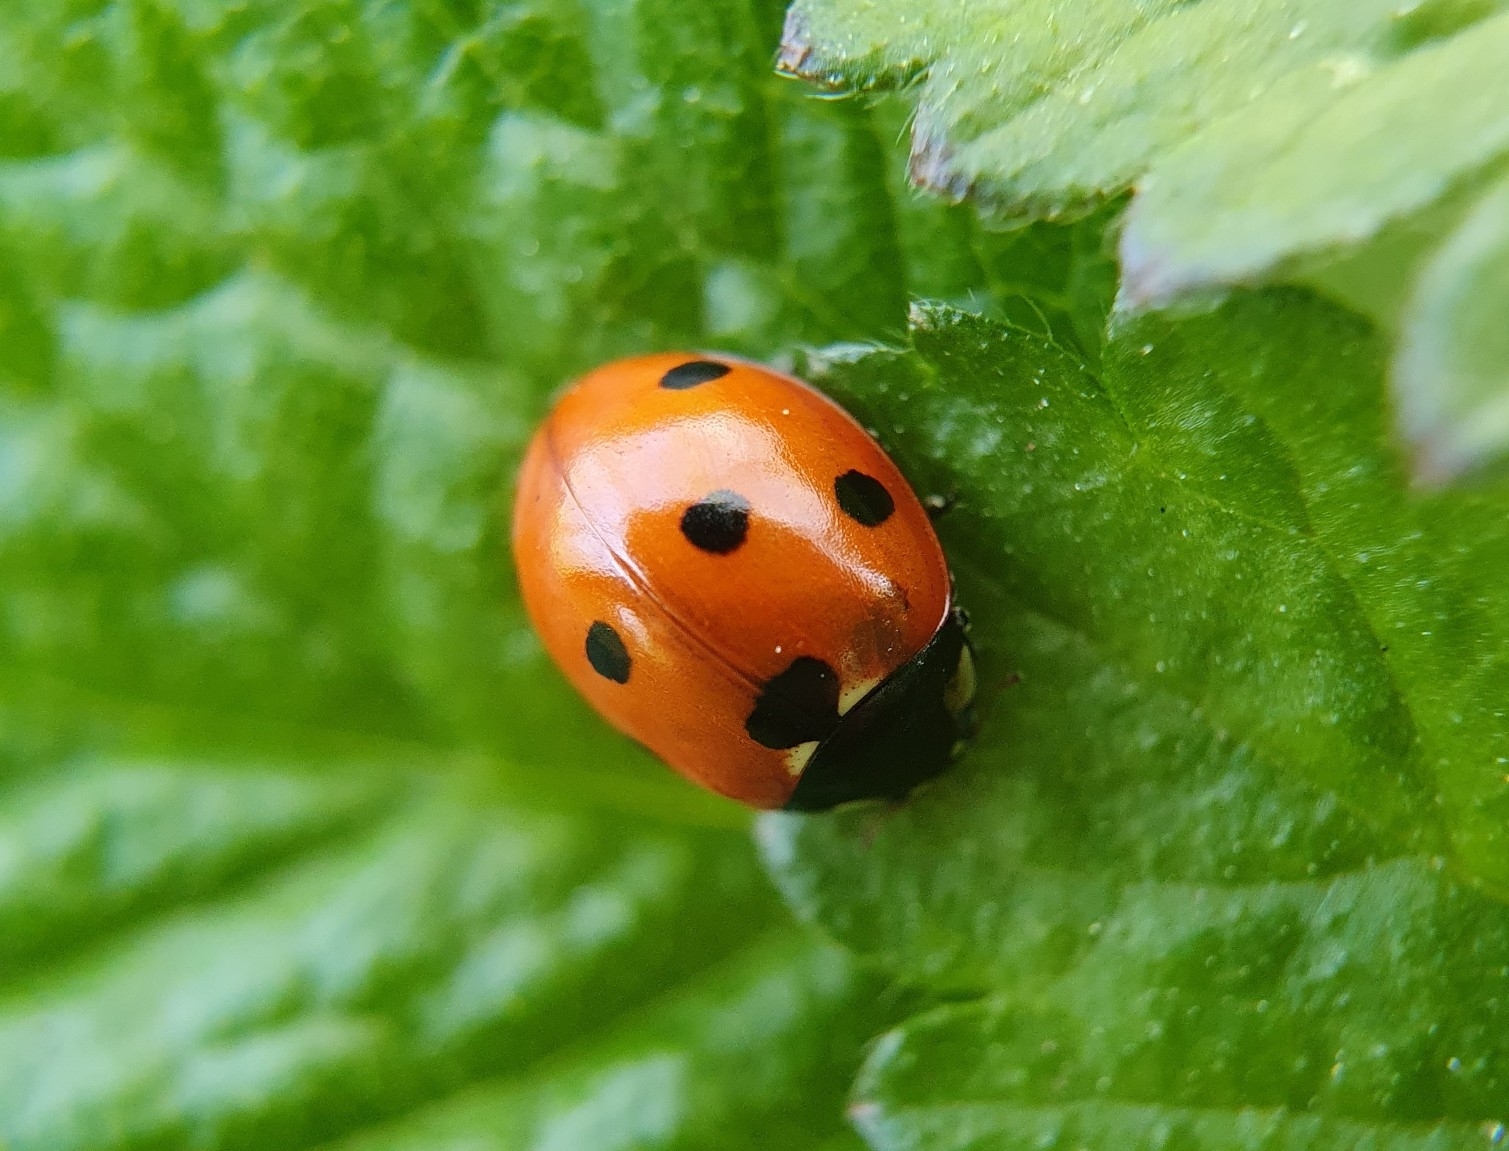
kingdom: Animalia
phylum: Arthropoda
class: Insecta
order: Coleoptera
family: Coccinellidae
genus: Coccinella
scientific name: Coccinella septempunctata
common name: Sevenspotted lady beetle
